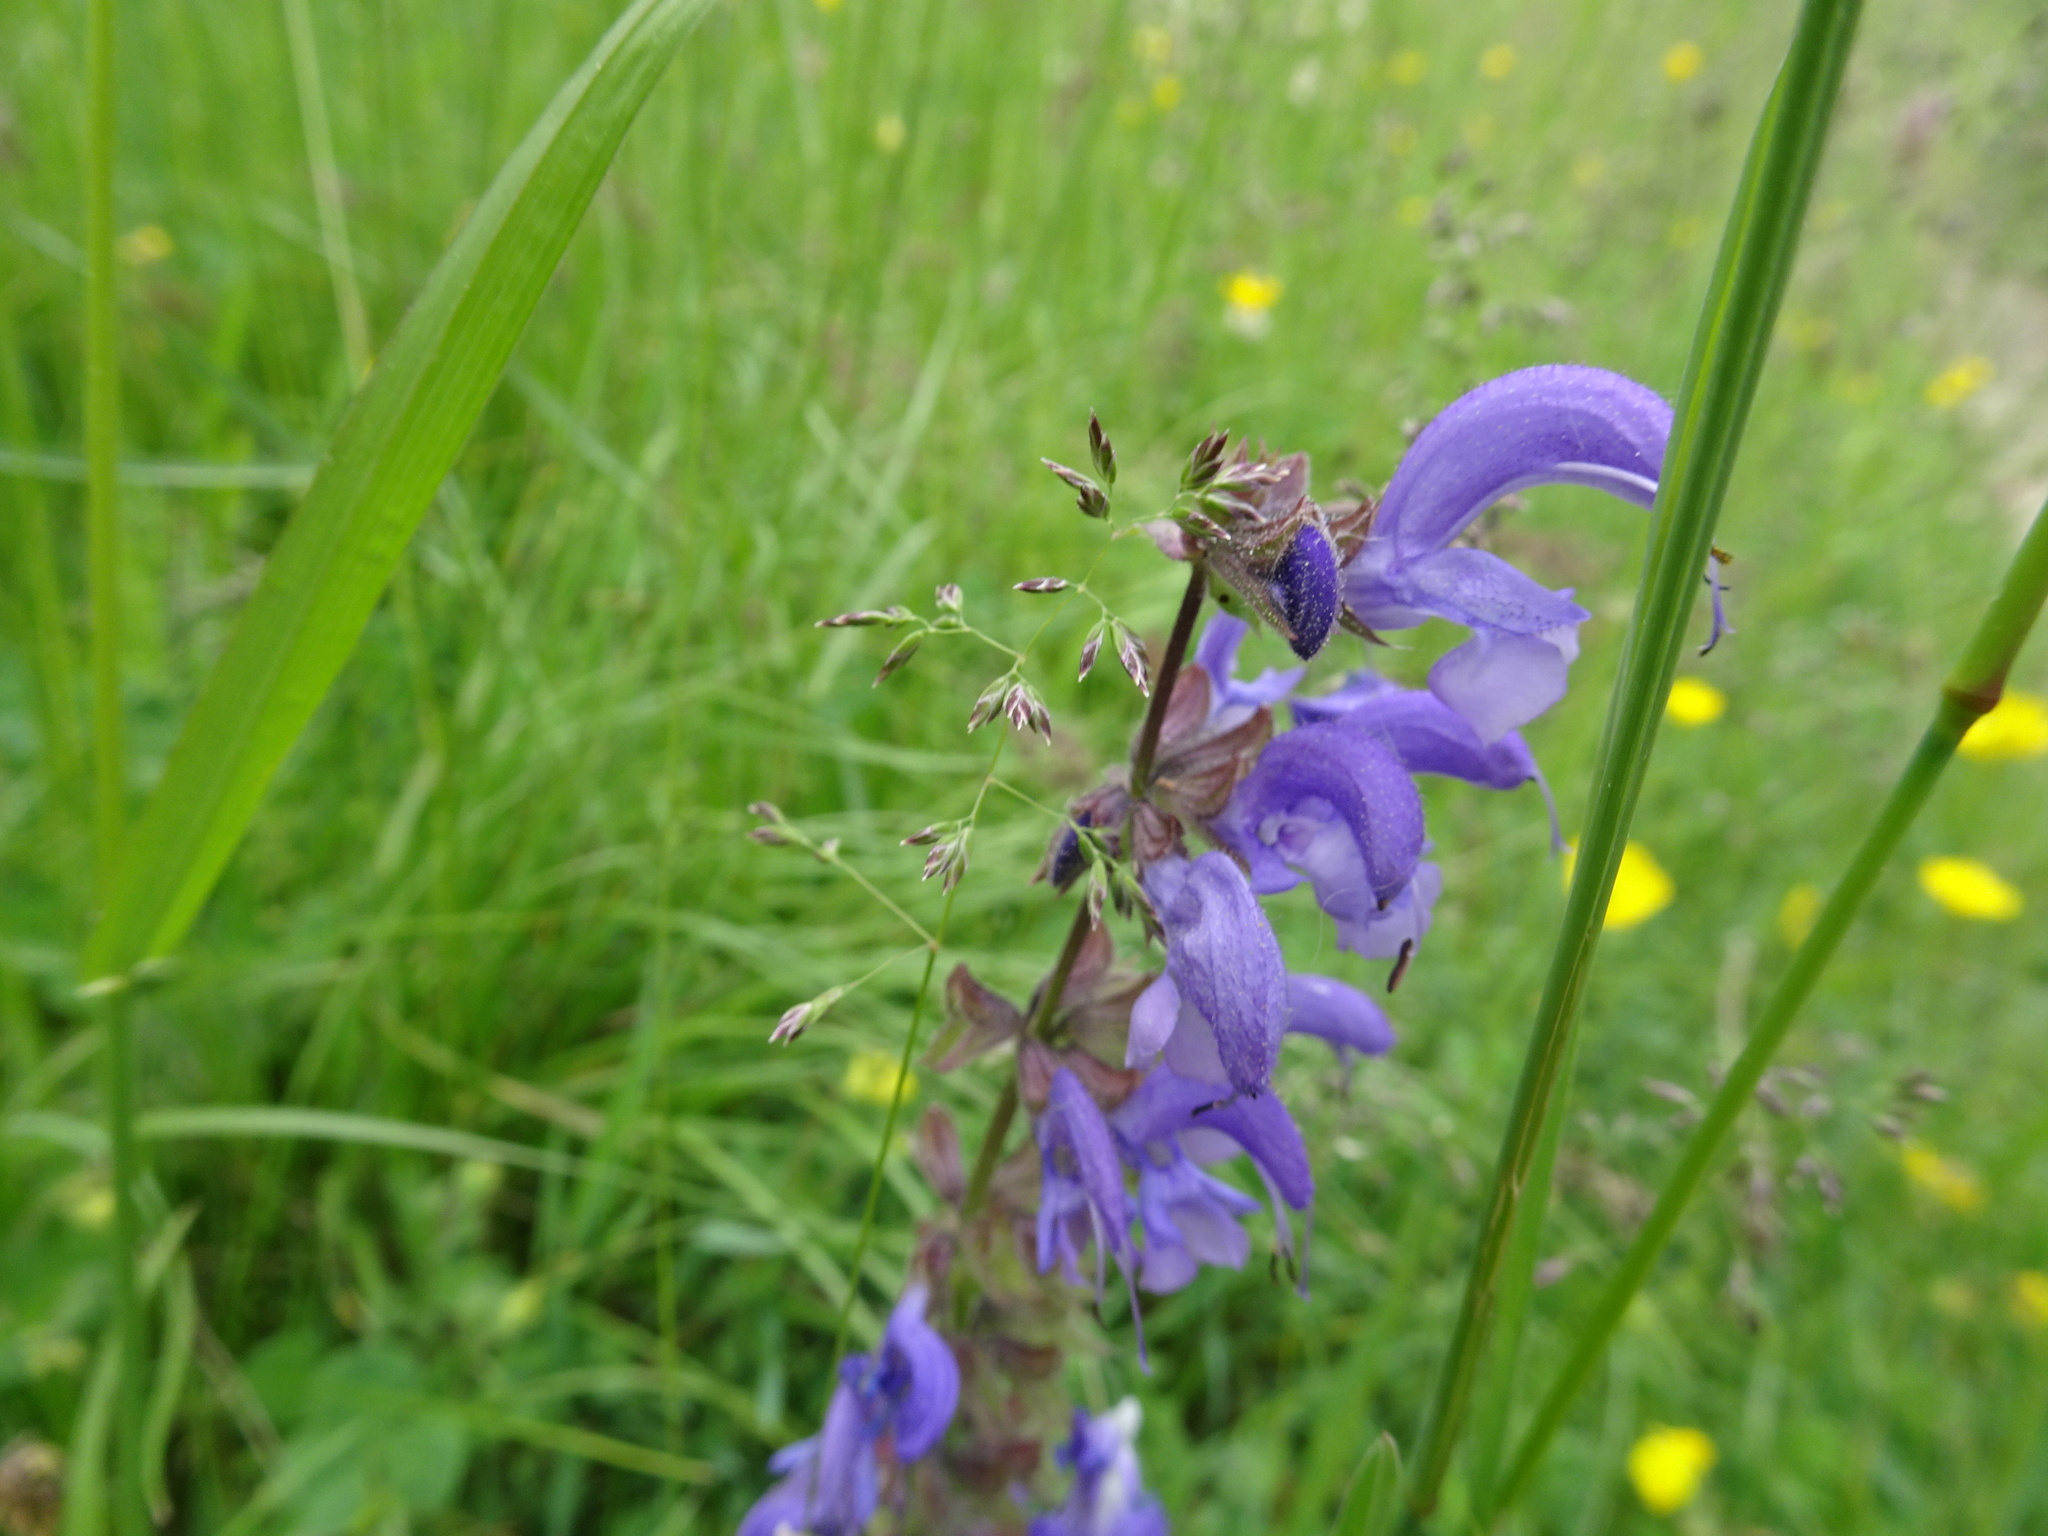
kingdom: Plantae
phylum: Tracheophyta
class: Magnoliopsida
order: Lamiales
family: Lamiaceae
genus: Salvia
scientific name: Salvia pratensis
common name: Meadow sage
